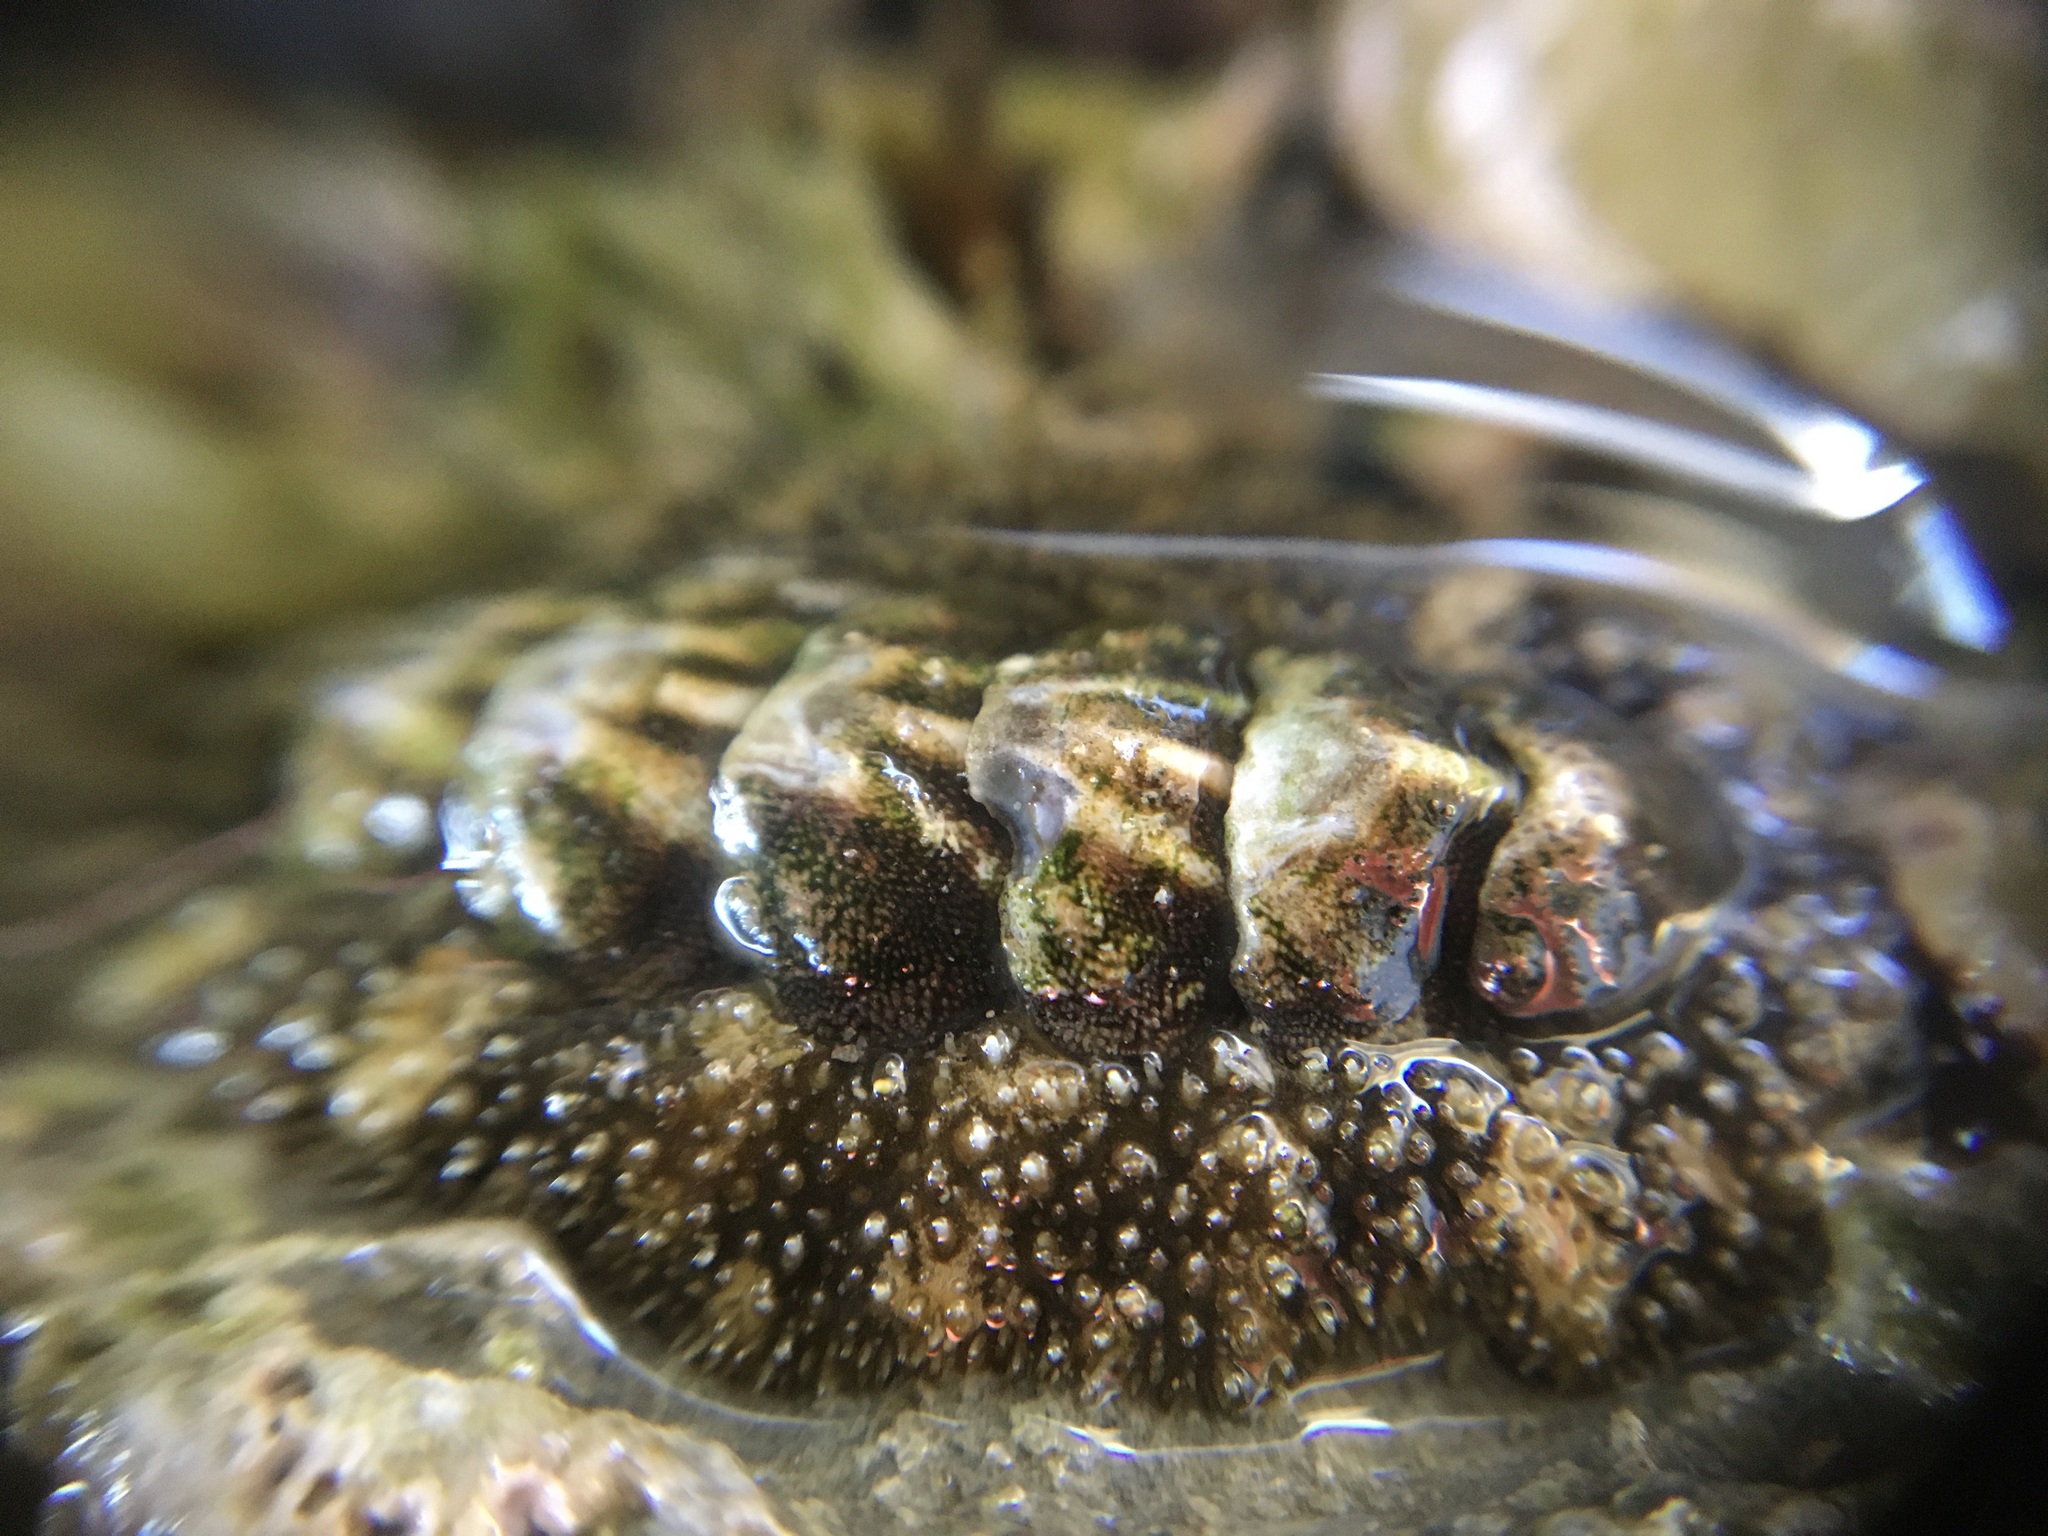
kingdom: Animalia
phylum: Mollusca
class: Polyplacophora
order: Chitonida
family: Tonicellidae
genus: Nuttallina
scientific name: Nuttallina californica
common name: California nuttall chiton
